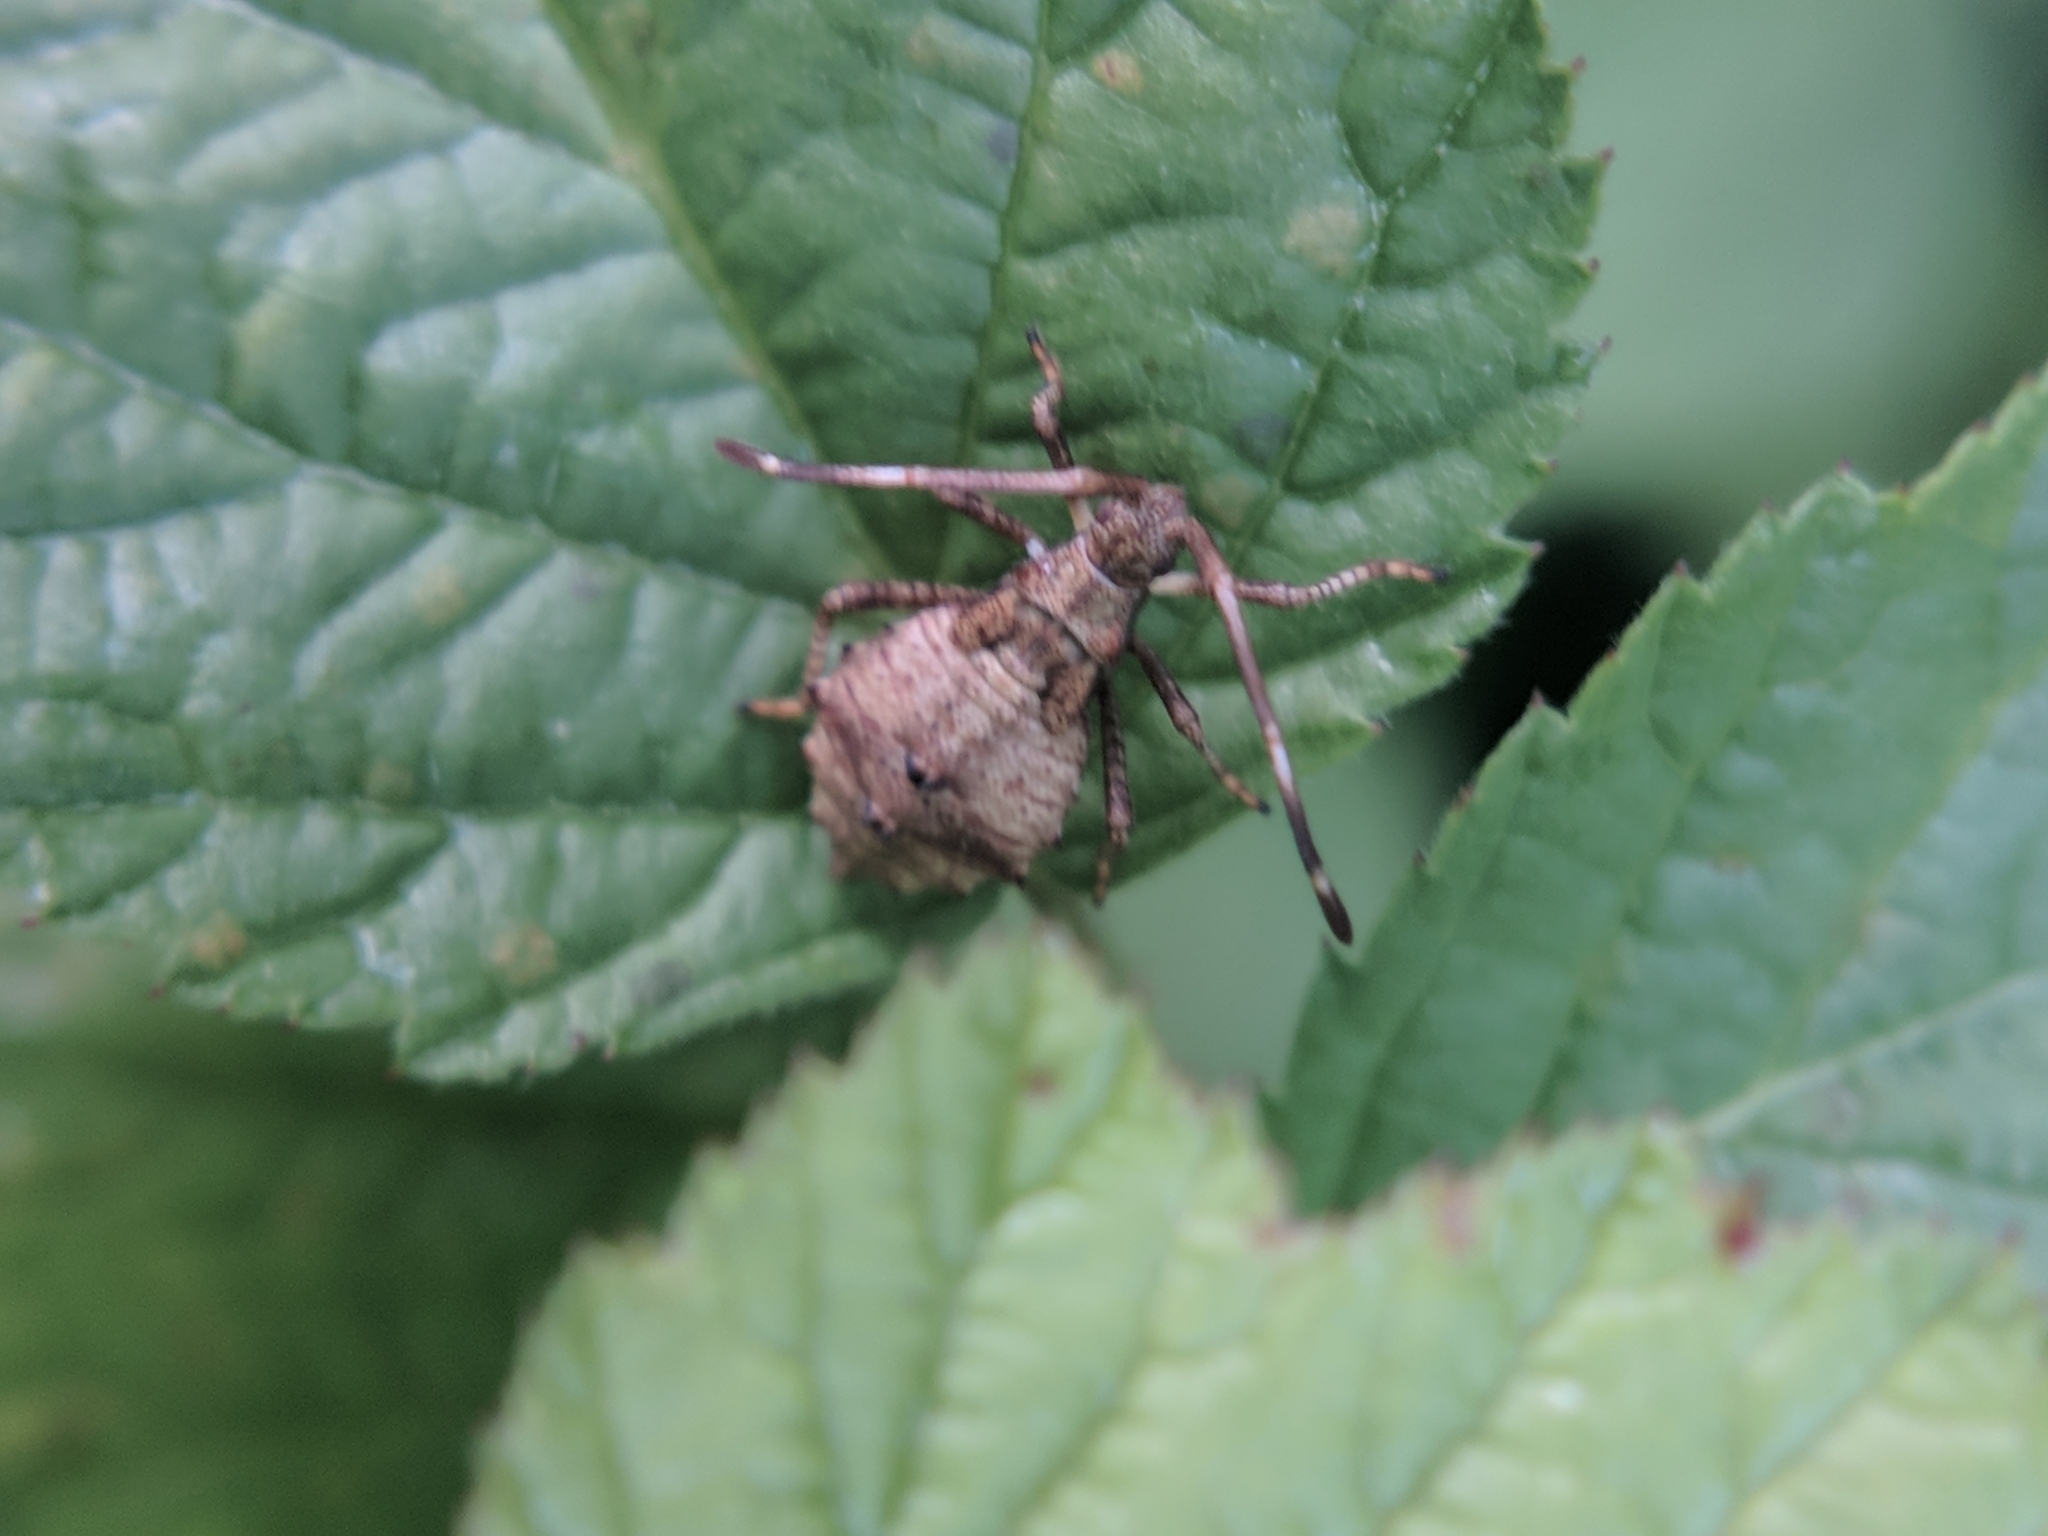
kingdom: Animalia
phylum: Arthropoda
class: Insecta
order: Hemiptera
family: Coreidae
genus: Coreus
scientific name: Coreus marginatus
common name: Dock bug
